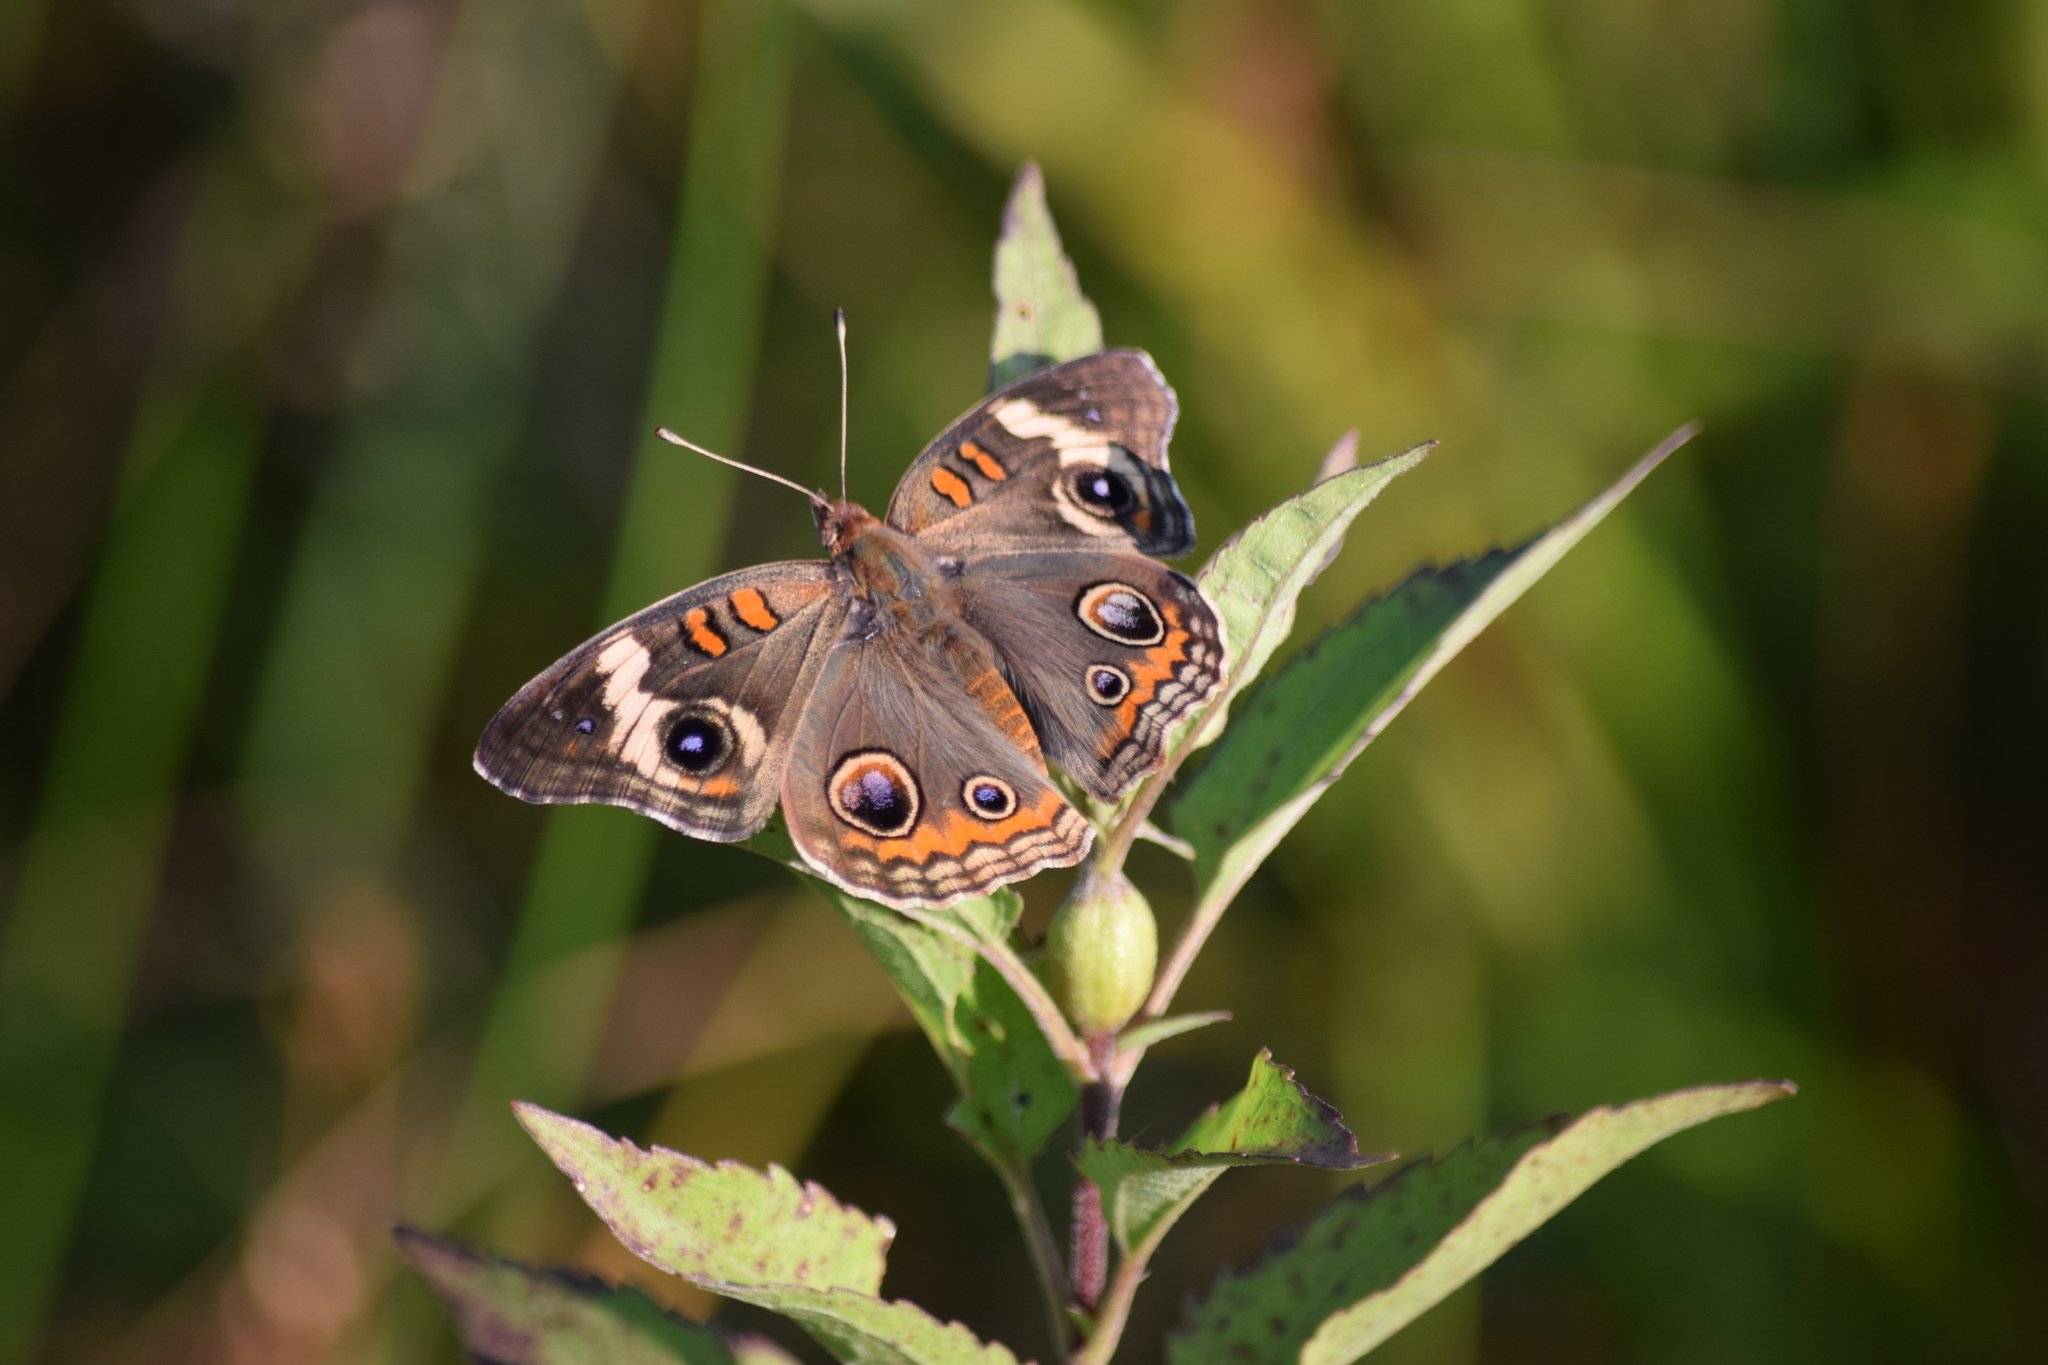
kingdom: Animalia
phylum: Arthropoda
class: Insecta
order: Lepidoptera
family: Nymphalidae
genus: Junonia
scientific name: Junonia coenia
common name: Common buckeye
